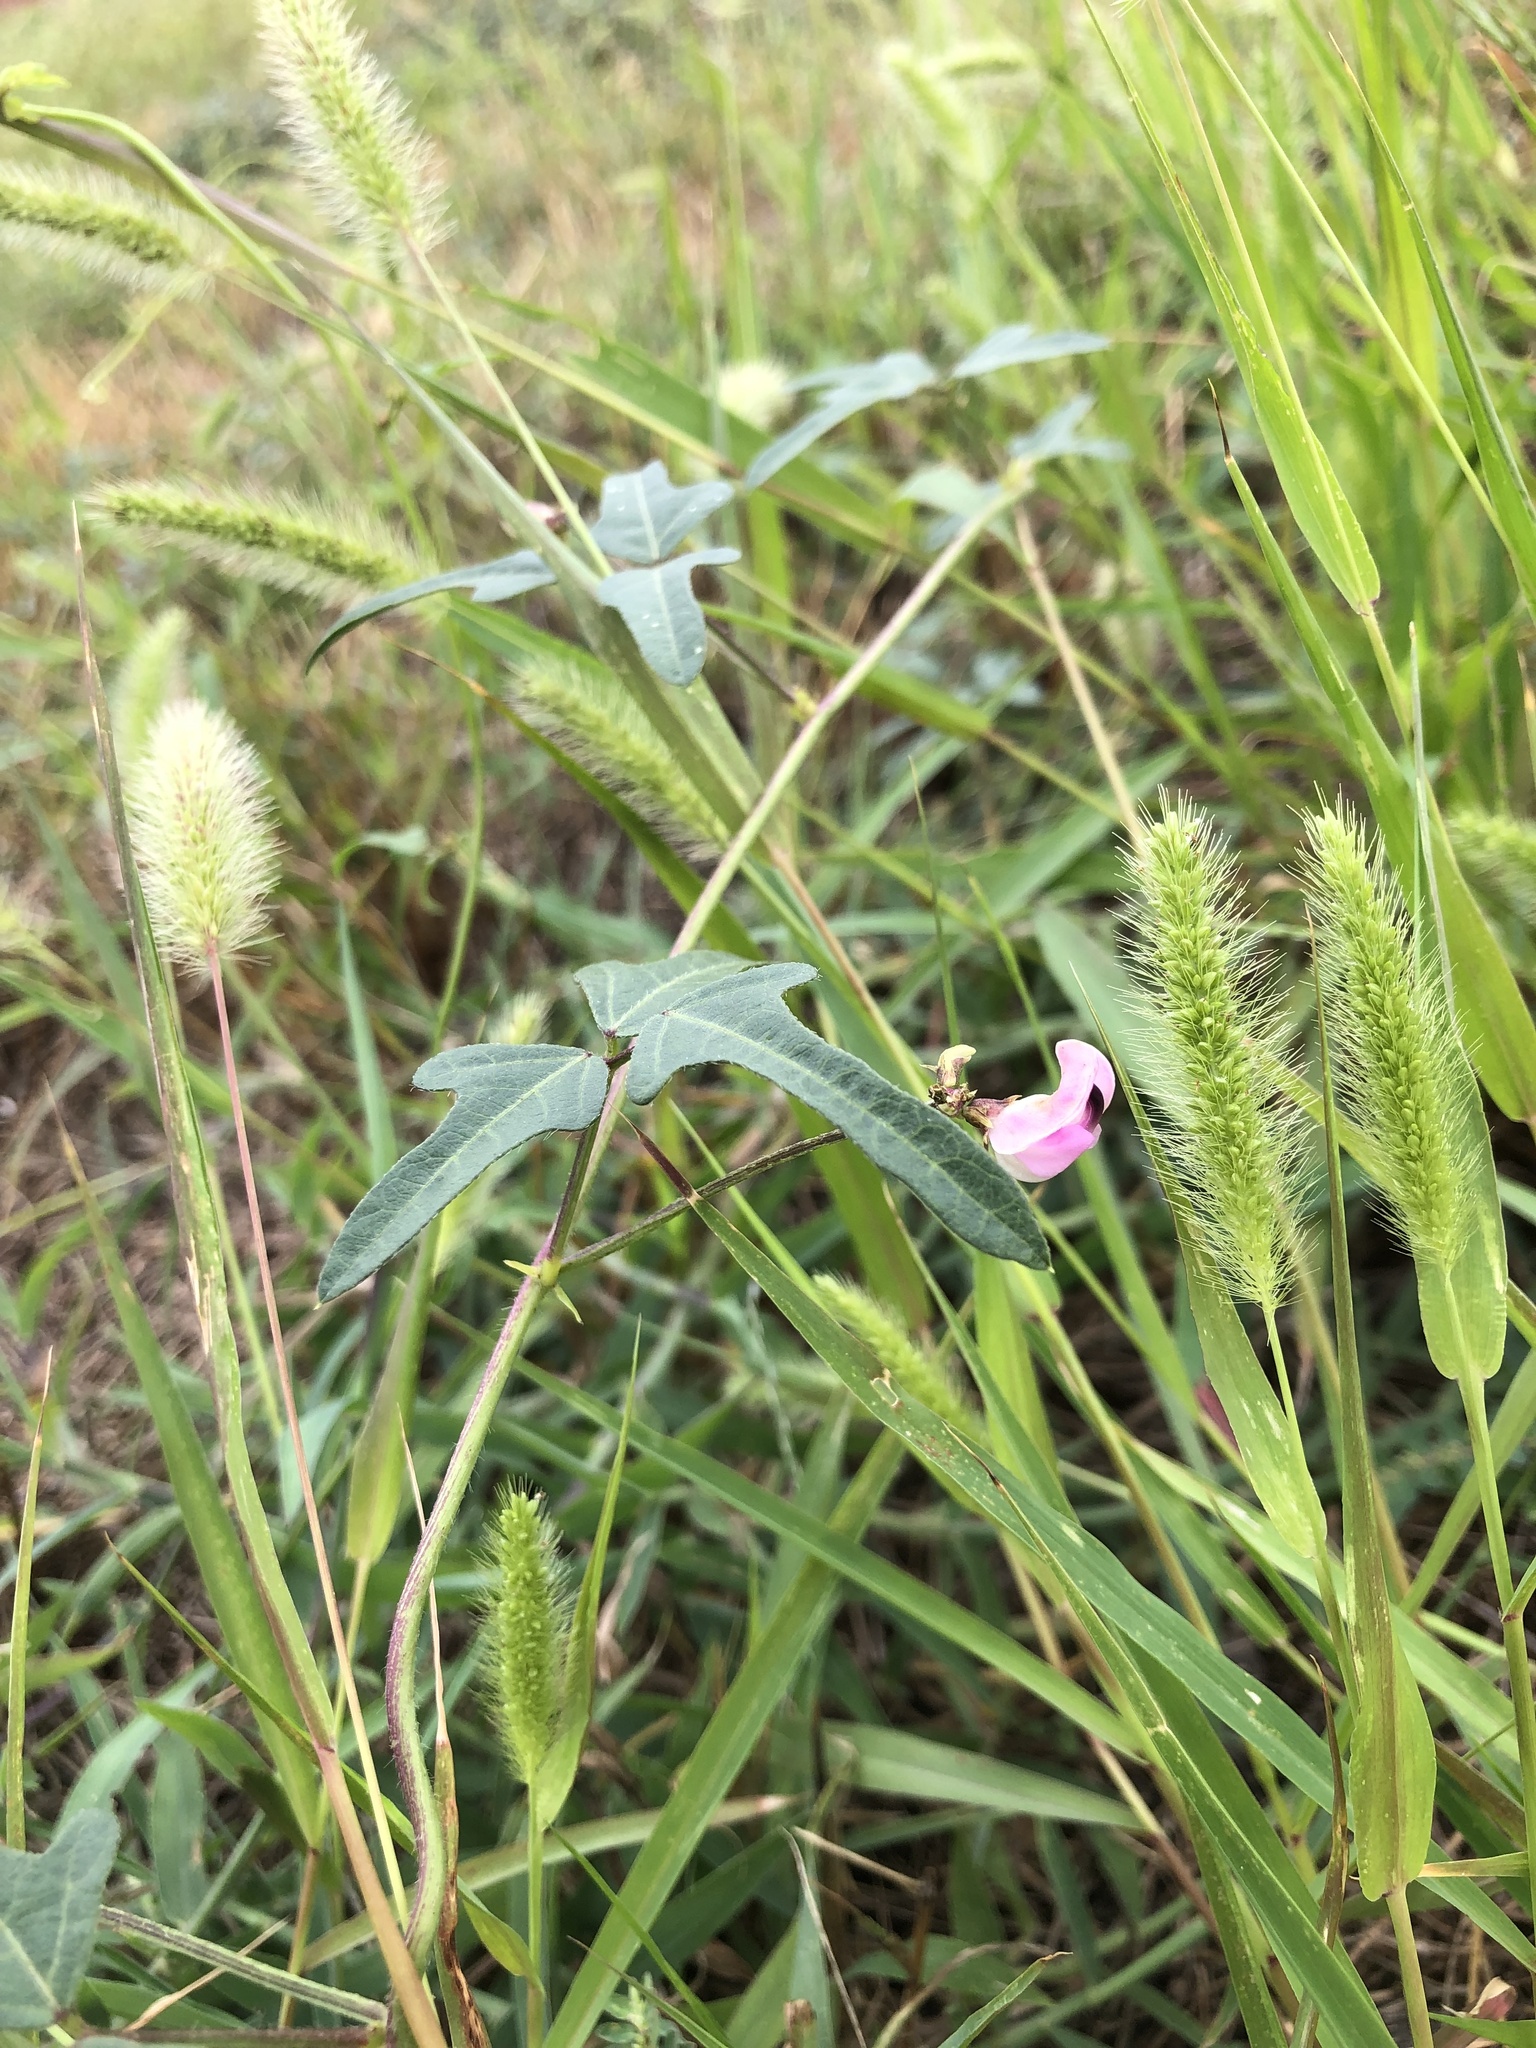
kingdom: Plantae
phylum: Tracheophyta
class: Magnoliopsida
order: Fabales
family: Fabaceae
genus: Strophostyles
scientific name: Strophostyles helvola
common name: Trailing wild bean
